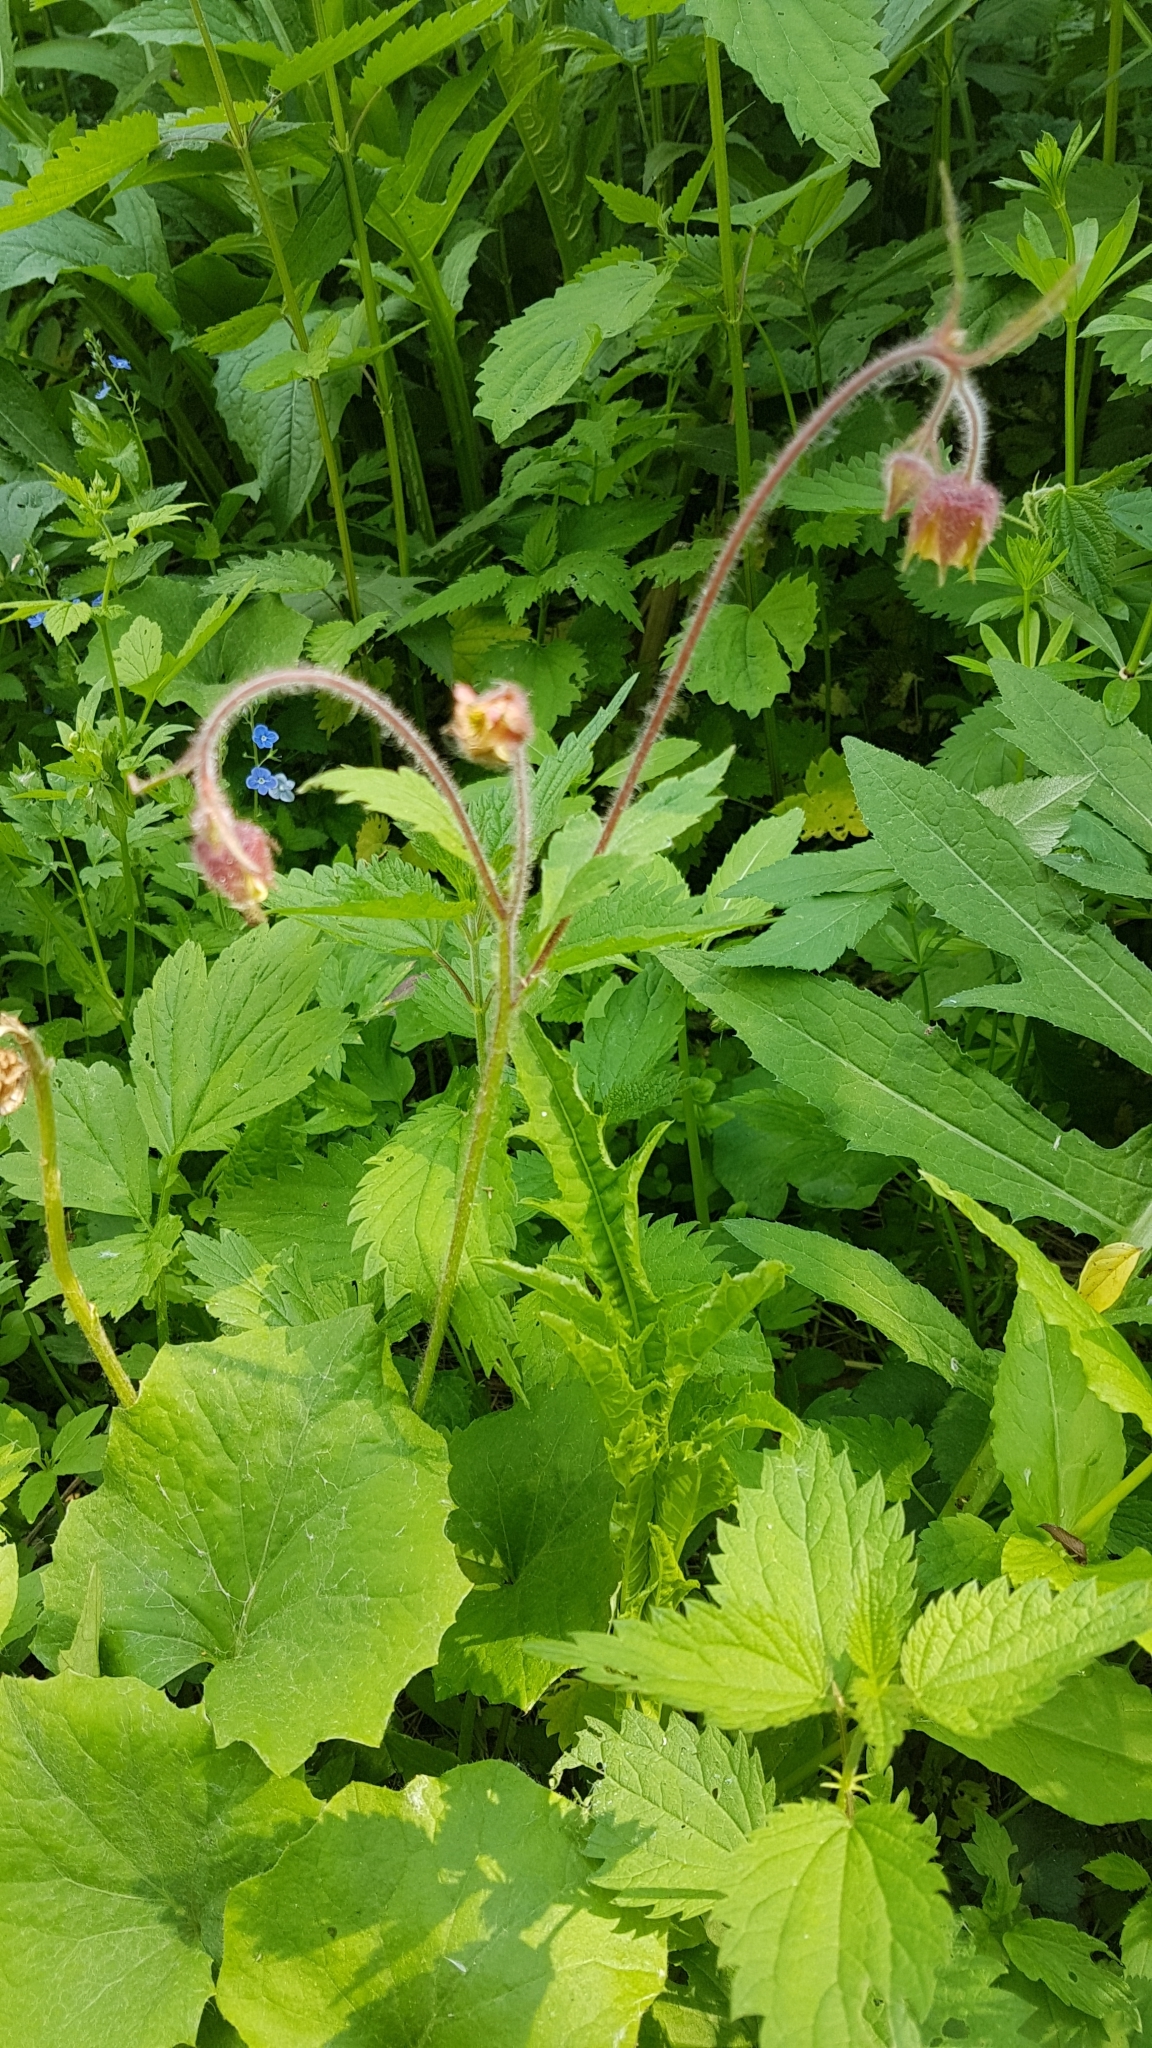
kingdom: Plantae
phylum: Tracheophyta
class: Magnoliopsida
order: Rosales
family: Rosaceae
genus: Geum
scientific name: Geum rivale
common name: Water avens
